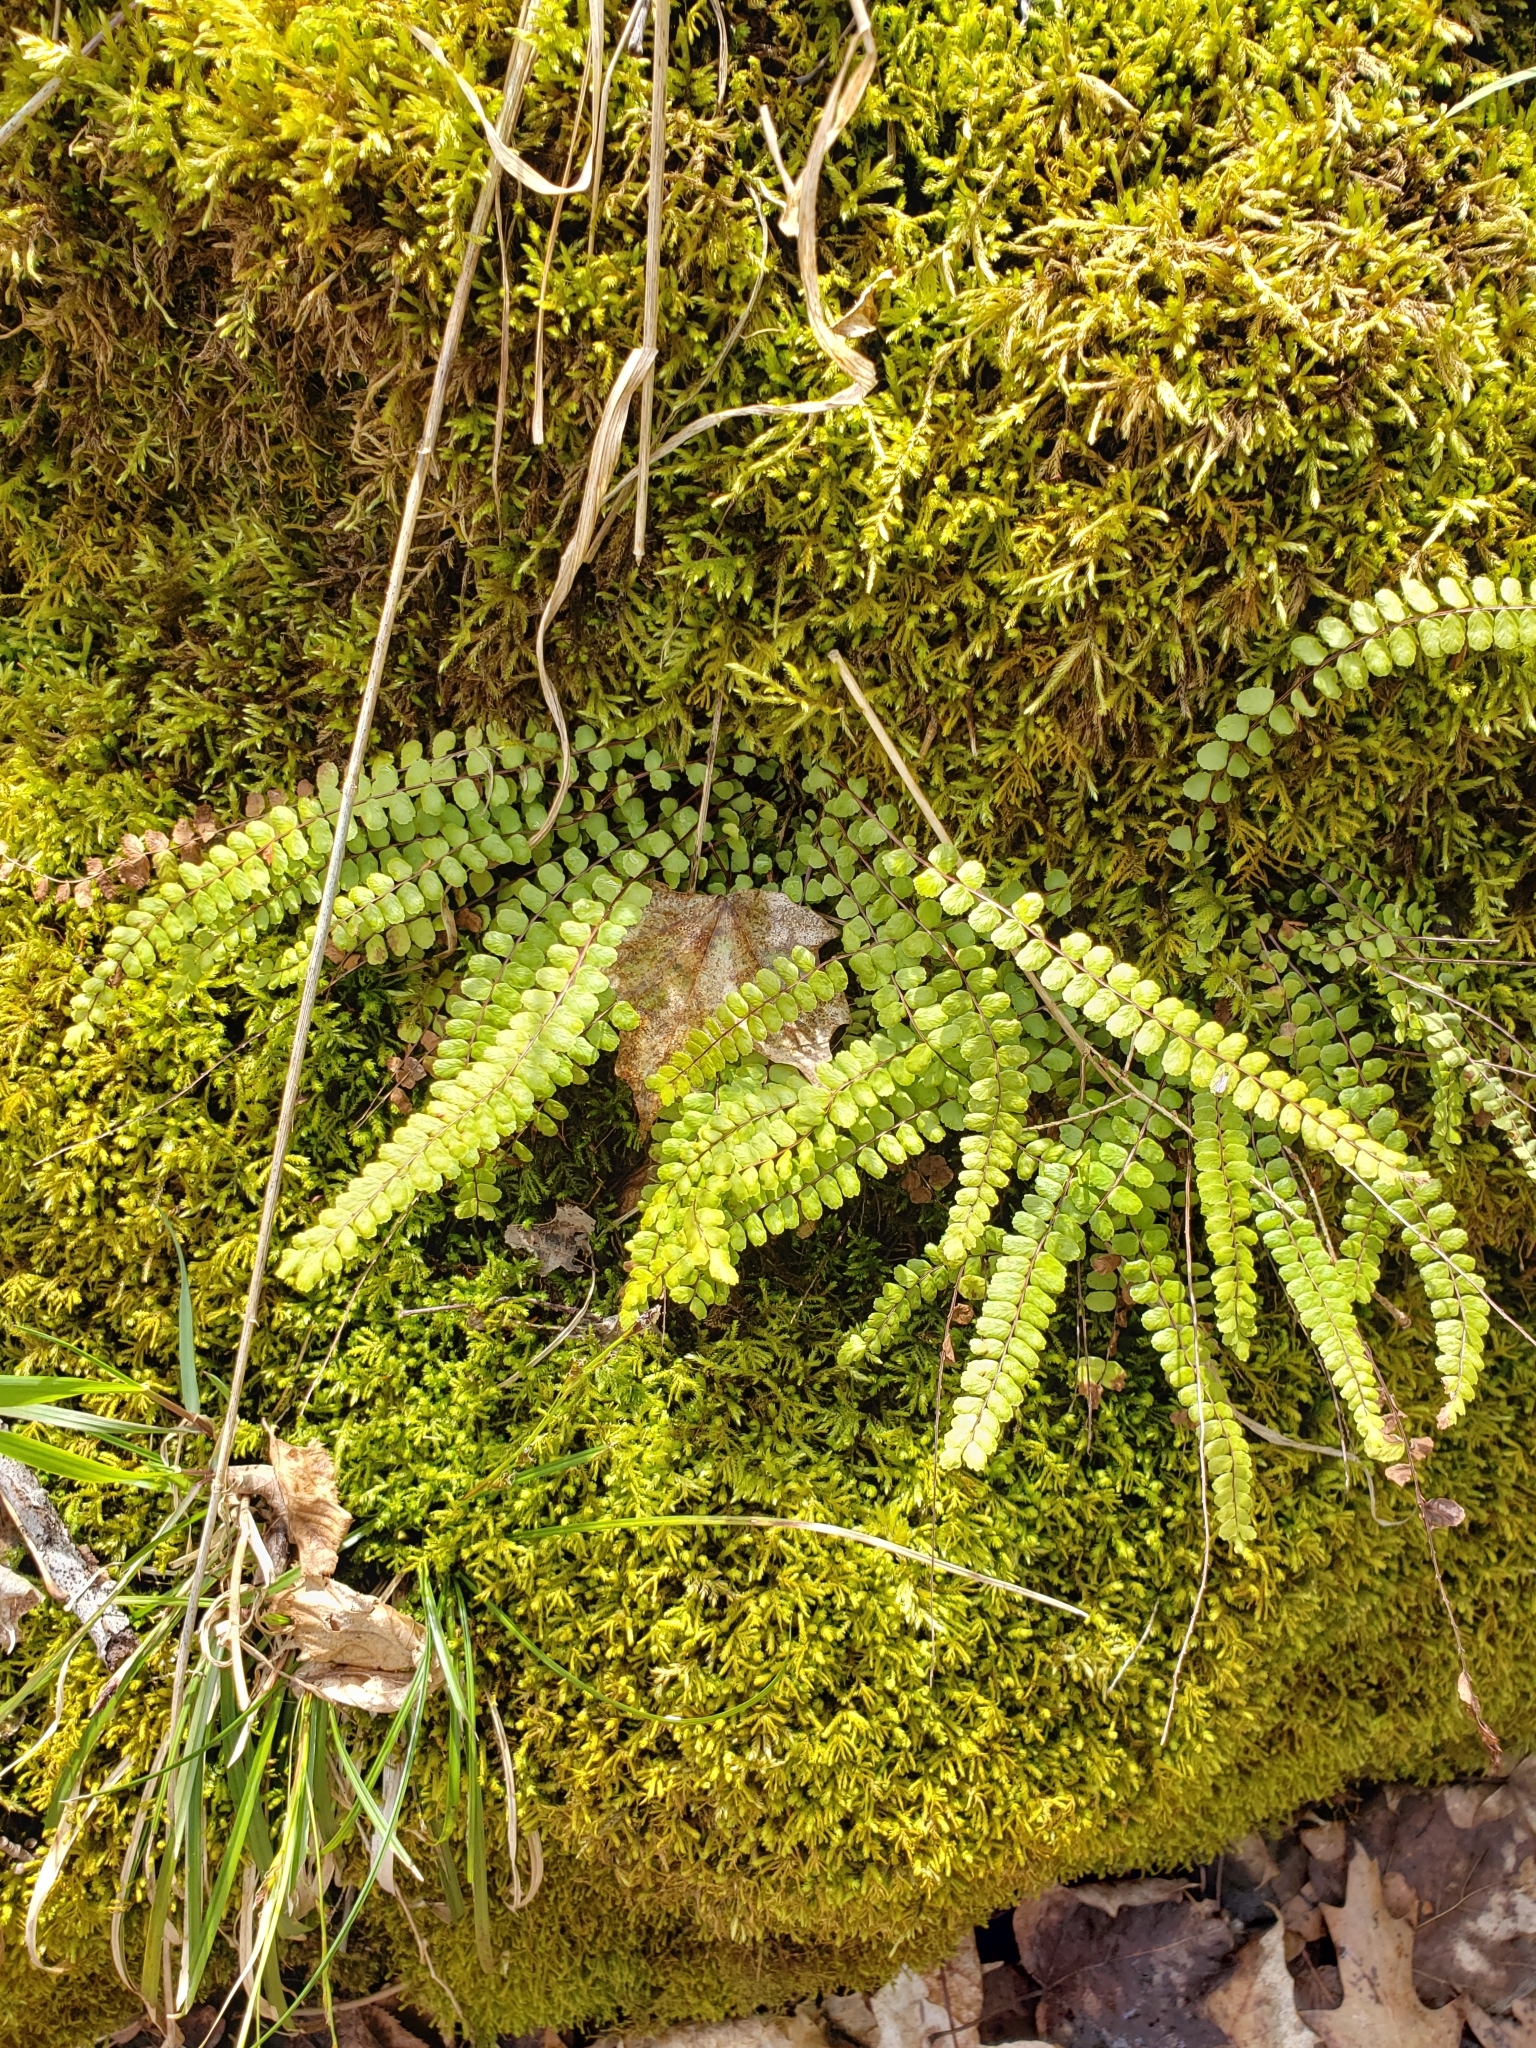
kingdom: Plantae
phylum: Tracheophyta
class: Polypodiopsida
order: Polypodiales
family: Aspleniaceae
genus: Asplenium
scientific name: Asplenium trichomanes
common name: Maidenhair spleenwort
